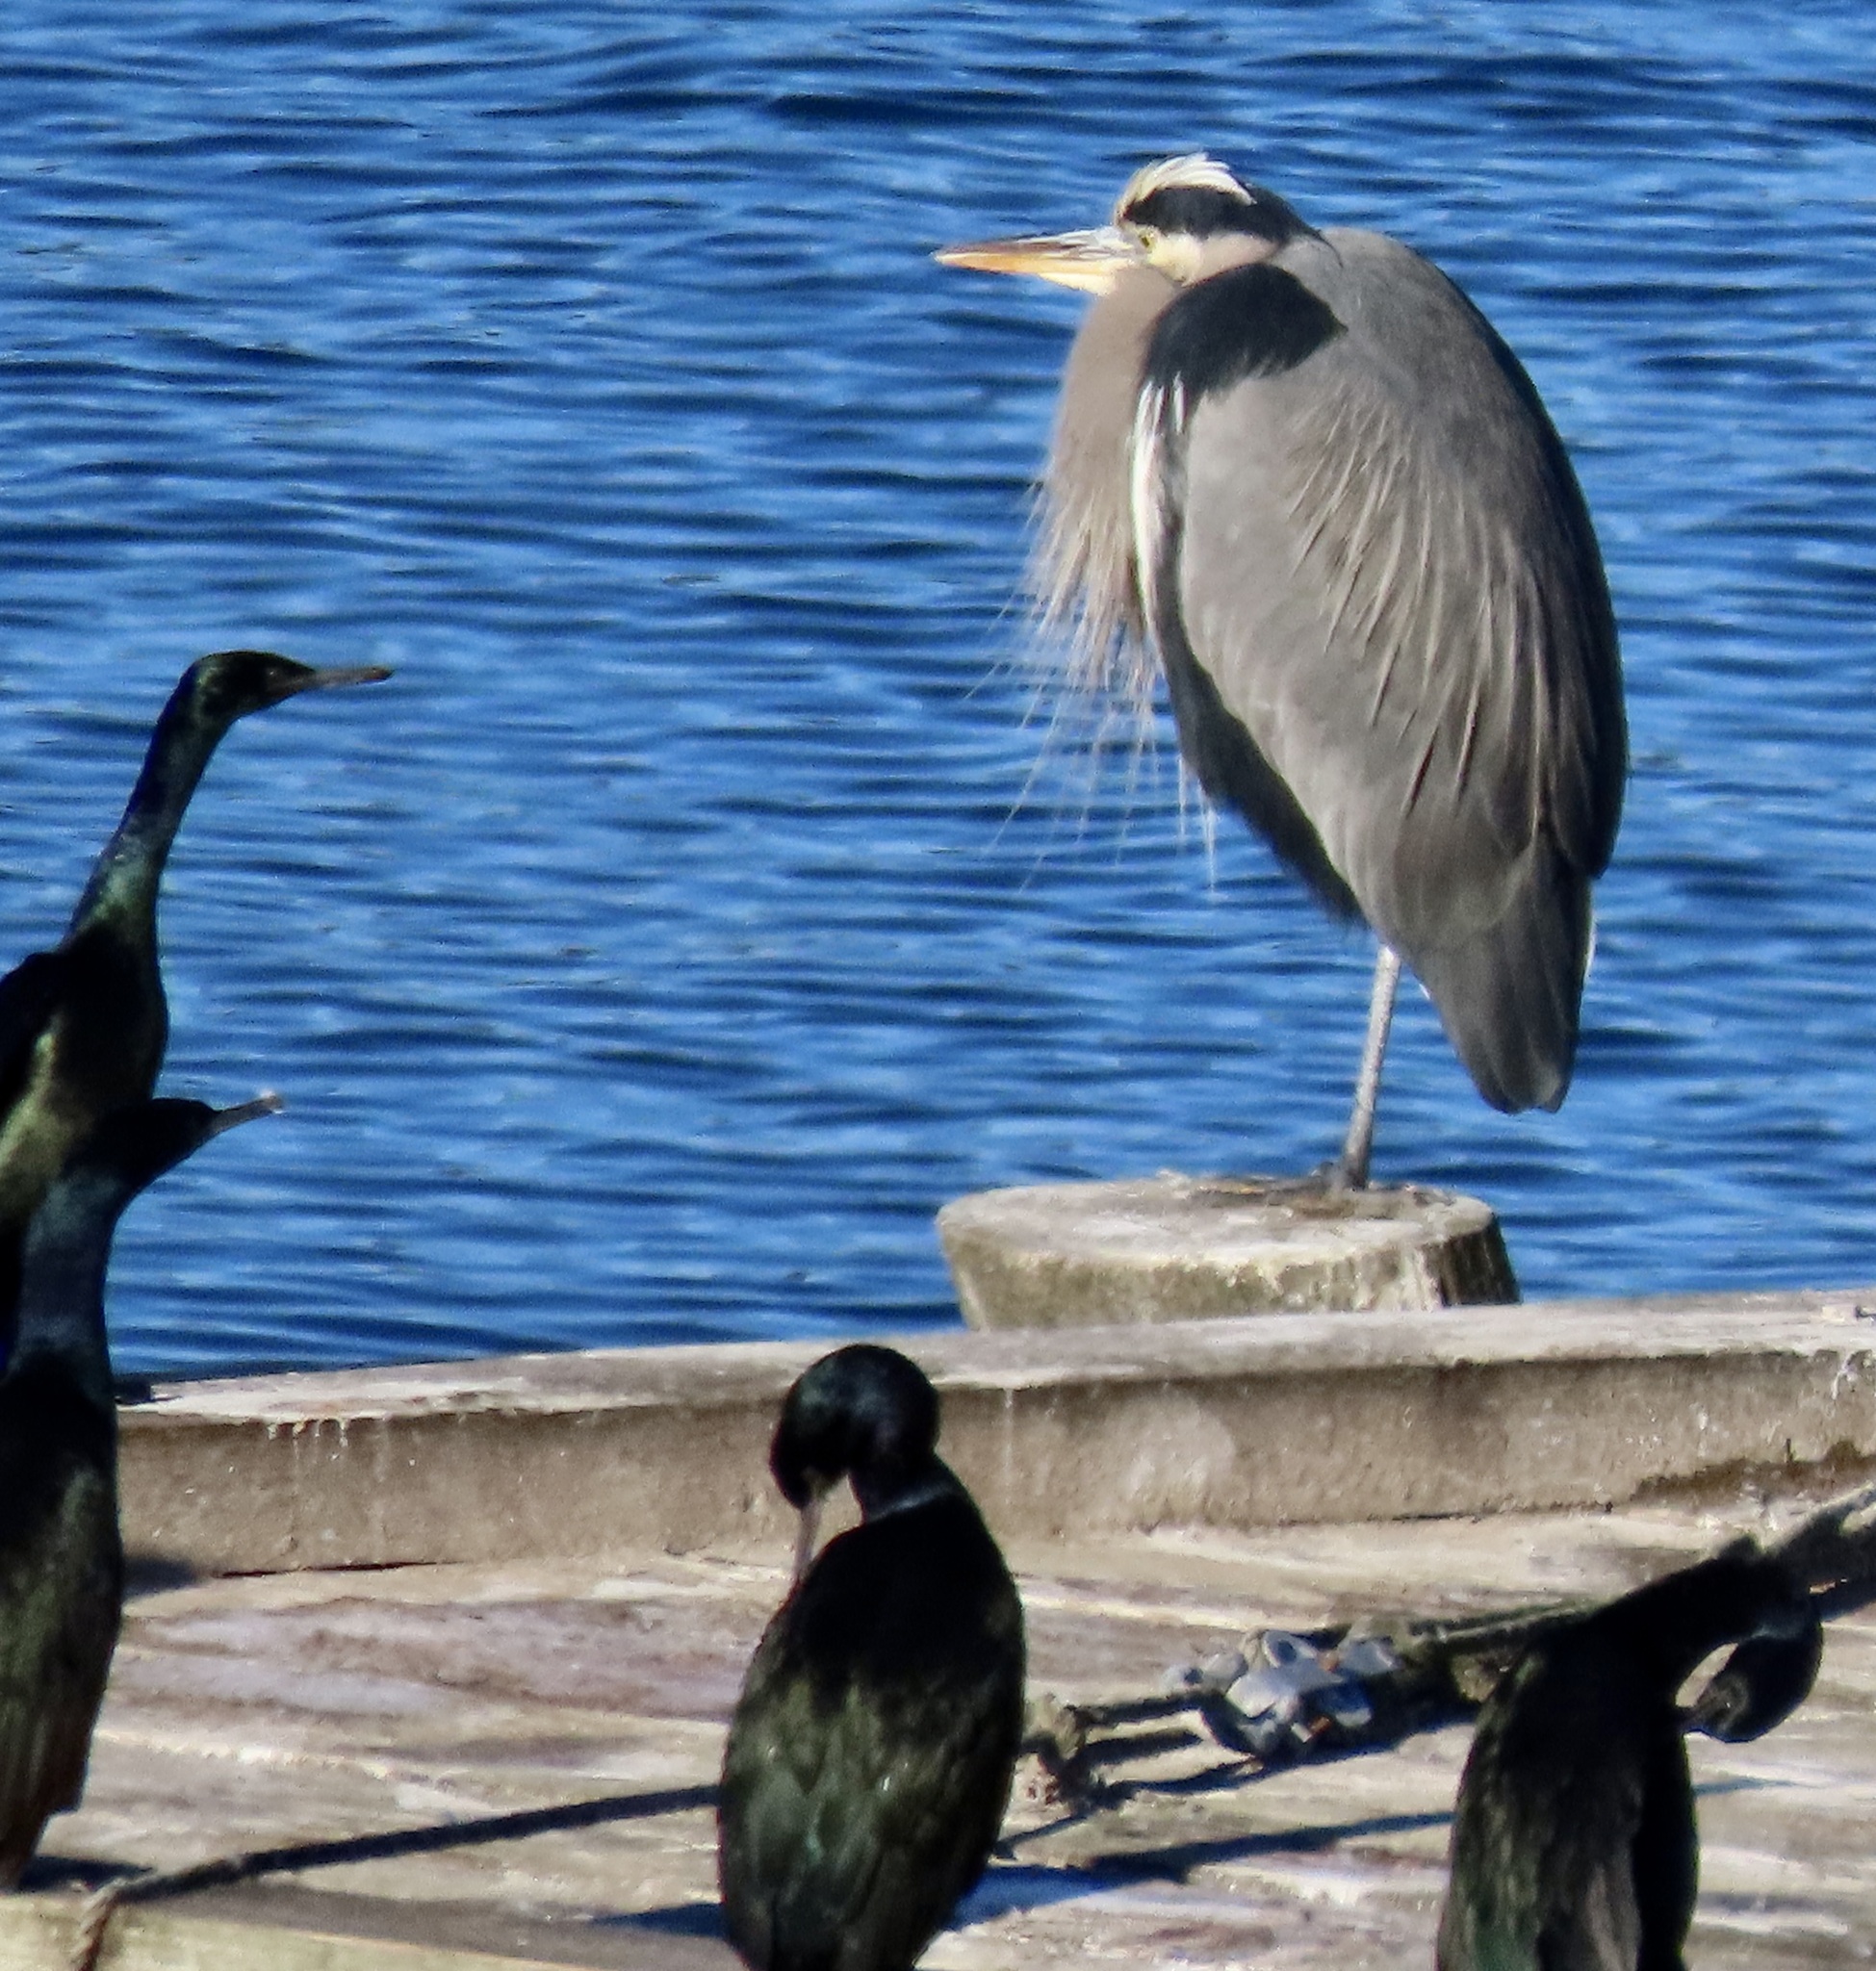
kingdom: Animalia
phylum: Chordata
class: Aves
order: Pelecaniformes
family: Ardeidae
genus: Ardea
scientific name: Ardea herodias
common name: Great blue heron
